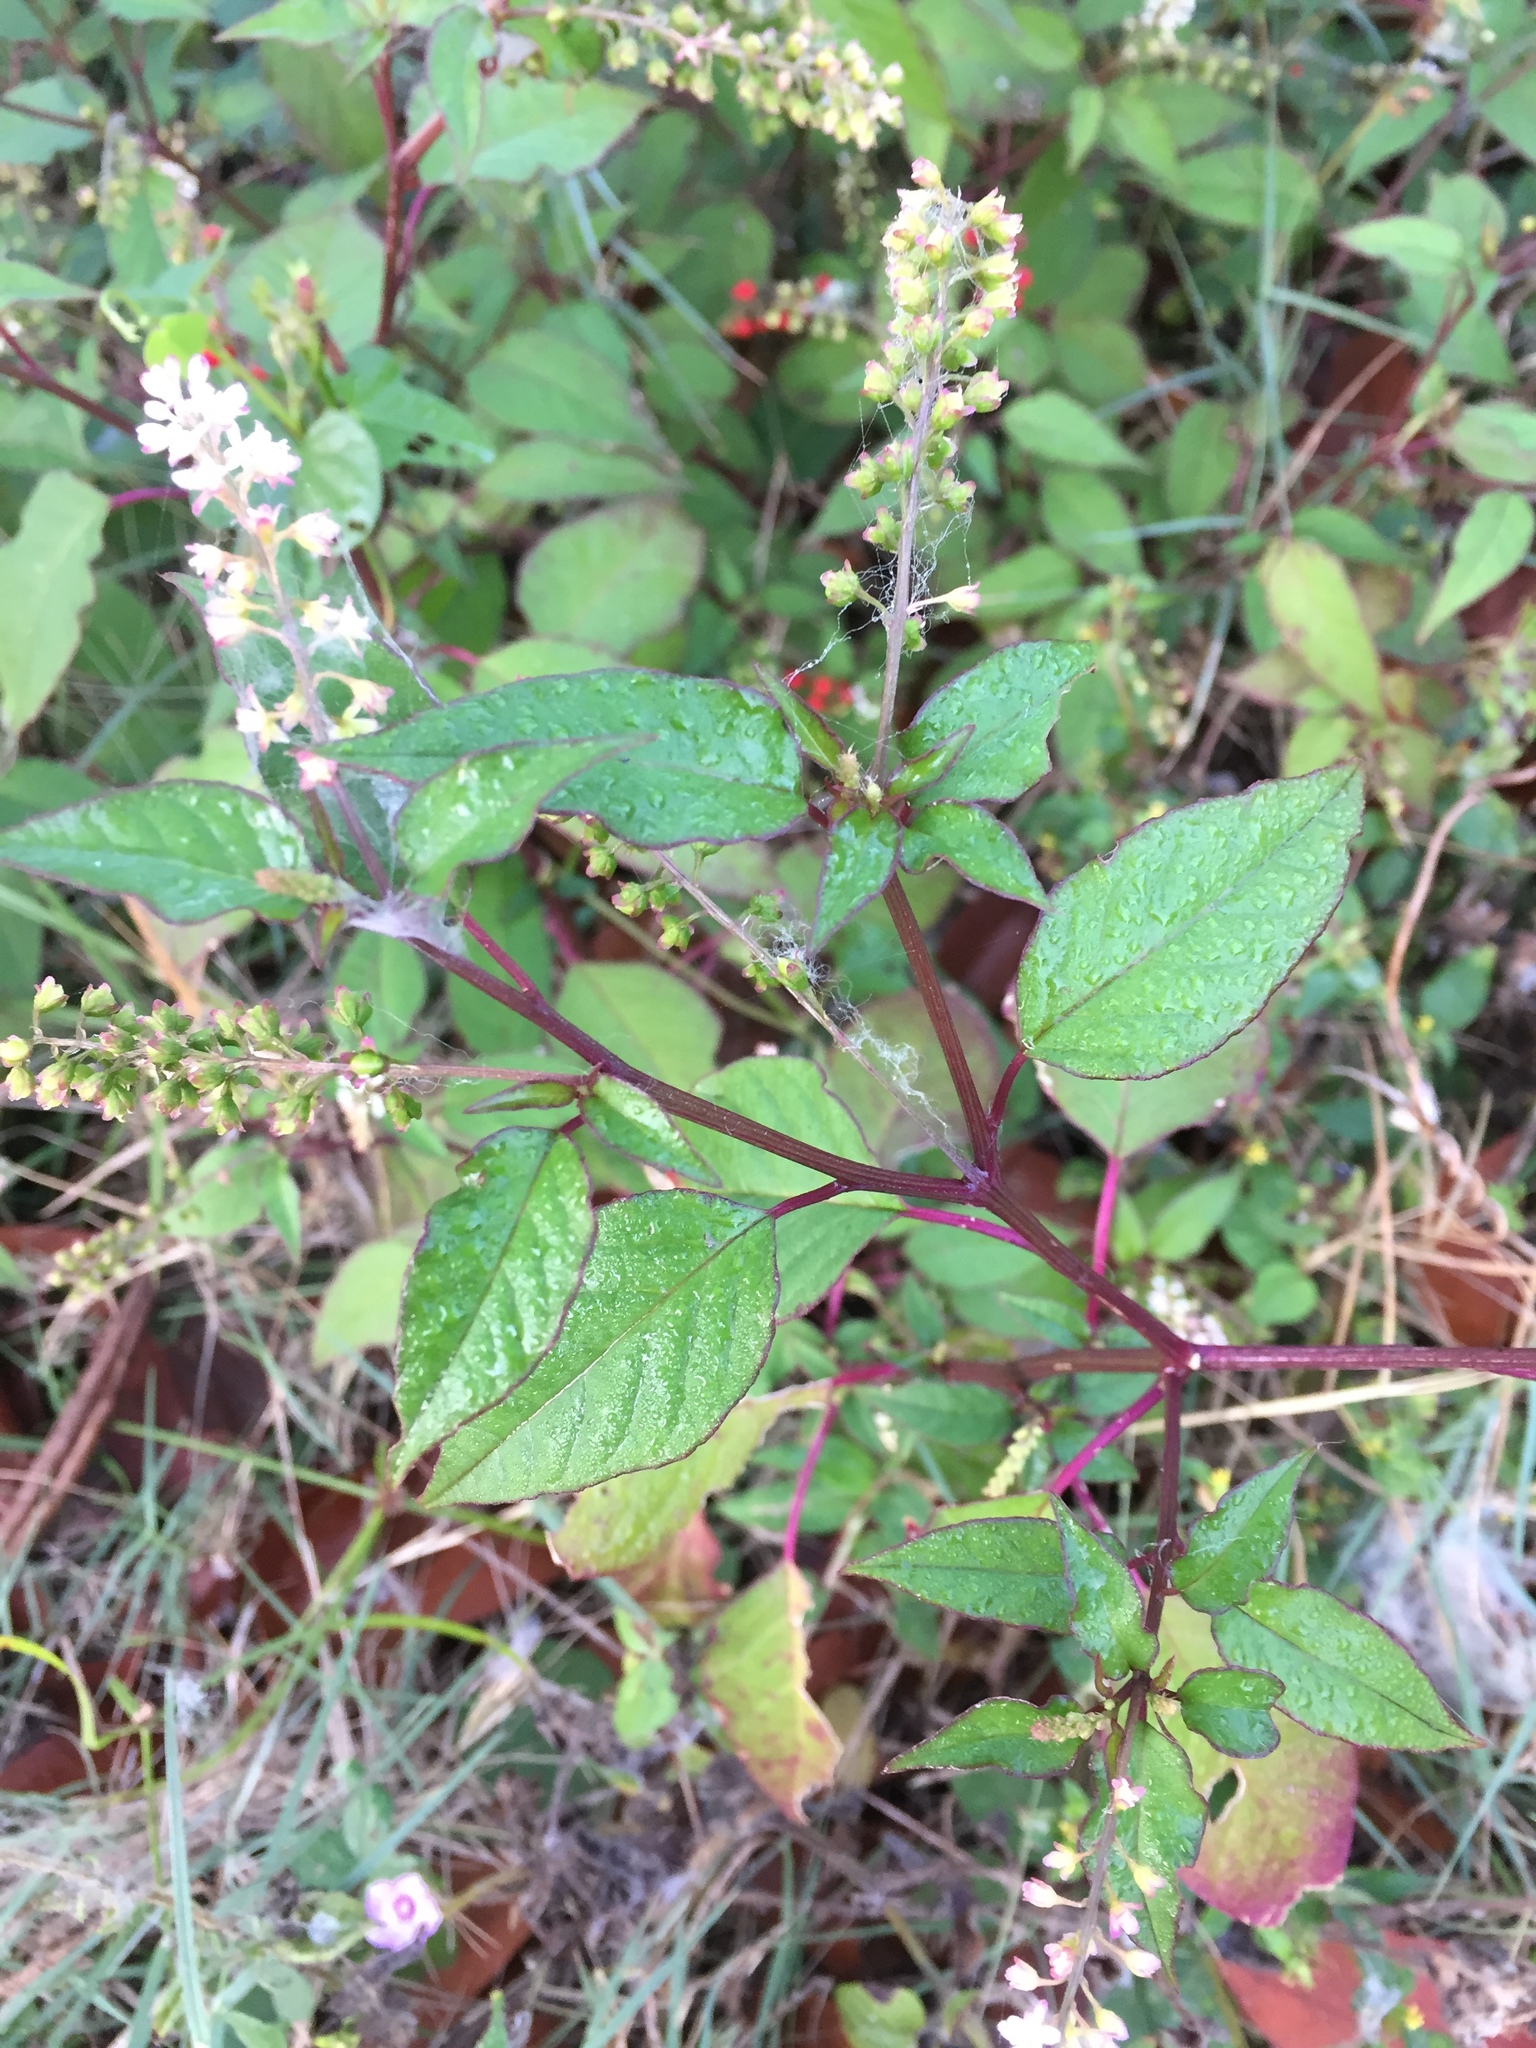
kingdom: Plantae
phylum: Tracheophyta
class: Magnoliopsida
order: Caryophyllales
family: Phytolaccaceae
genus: Rivina
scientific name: Rivina humilis
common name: Rougeplant
